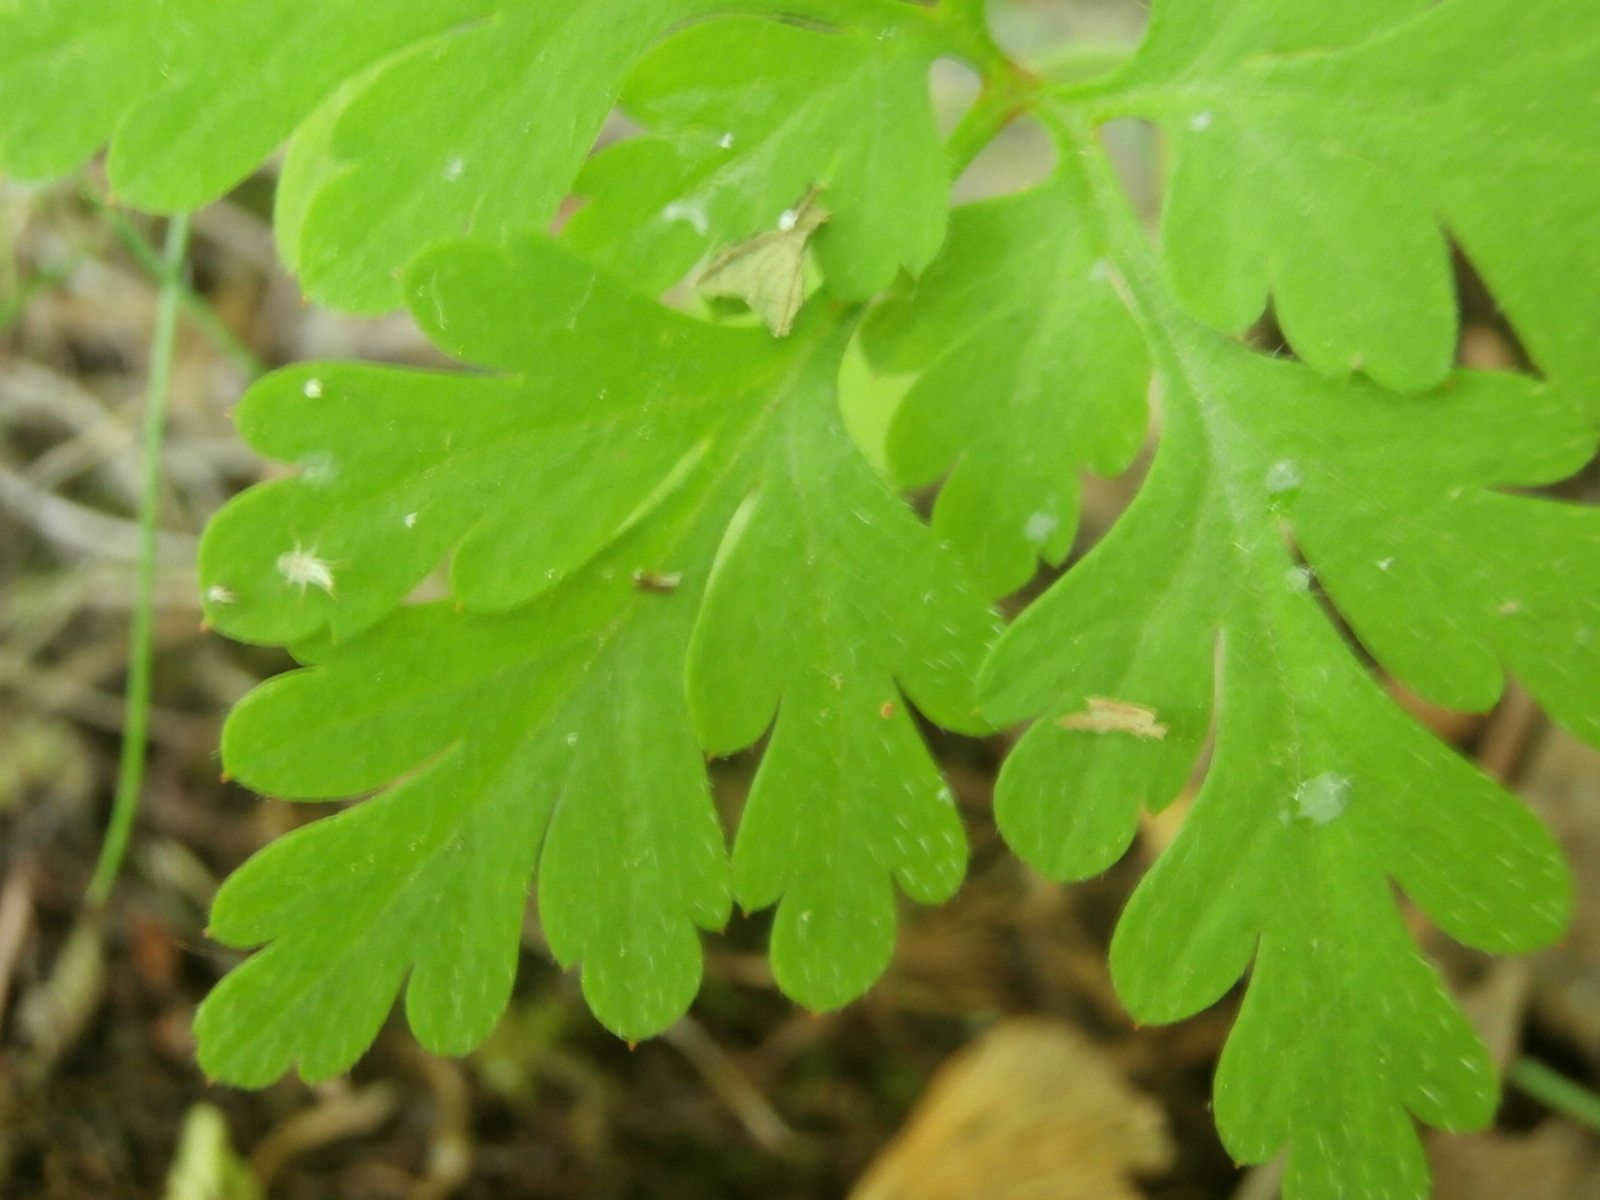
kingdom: Plantae
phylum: Tracheophyta
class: Magnoliopsida
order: Geraniales
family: Geraniaceae
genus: Geranium
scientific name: Geranium robertianum
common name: Herb-robert
